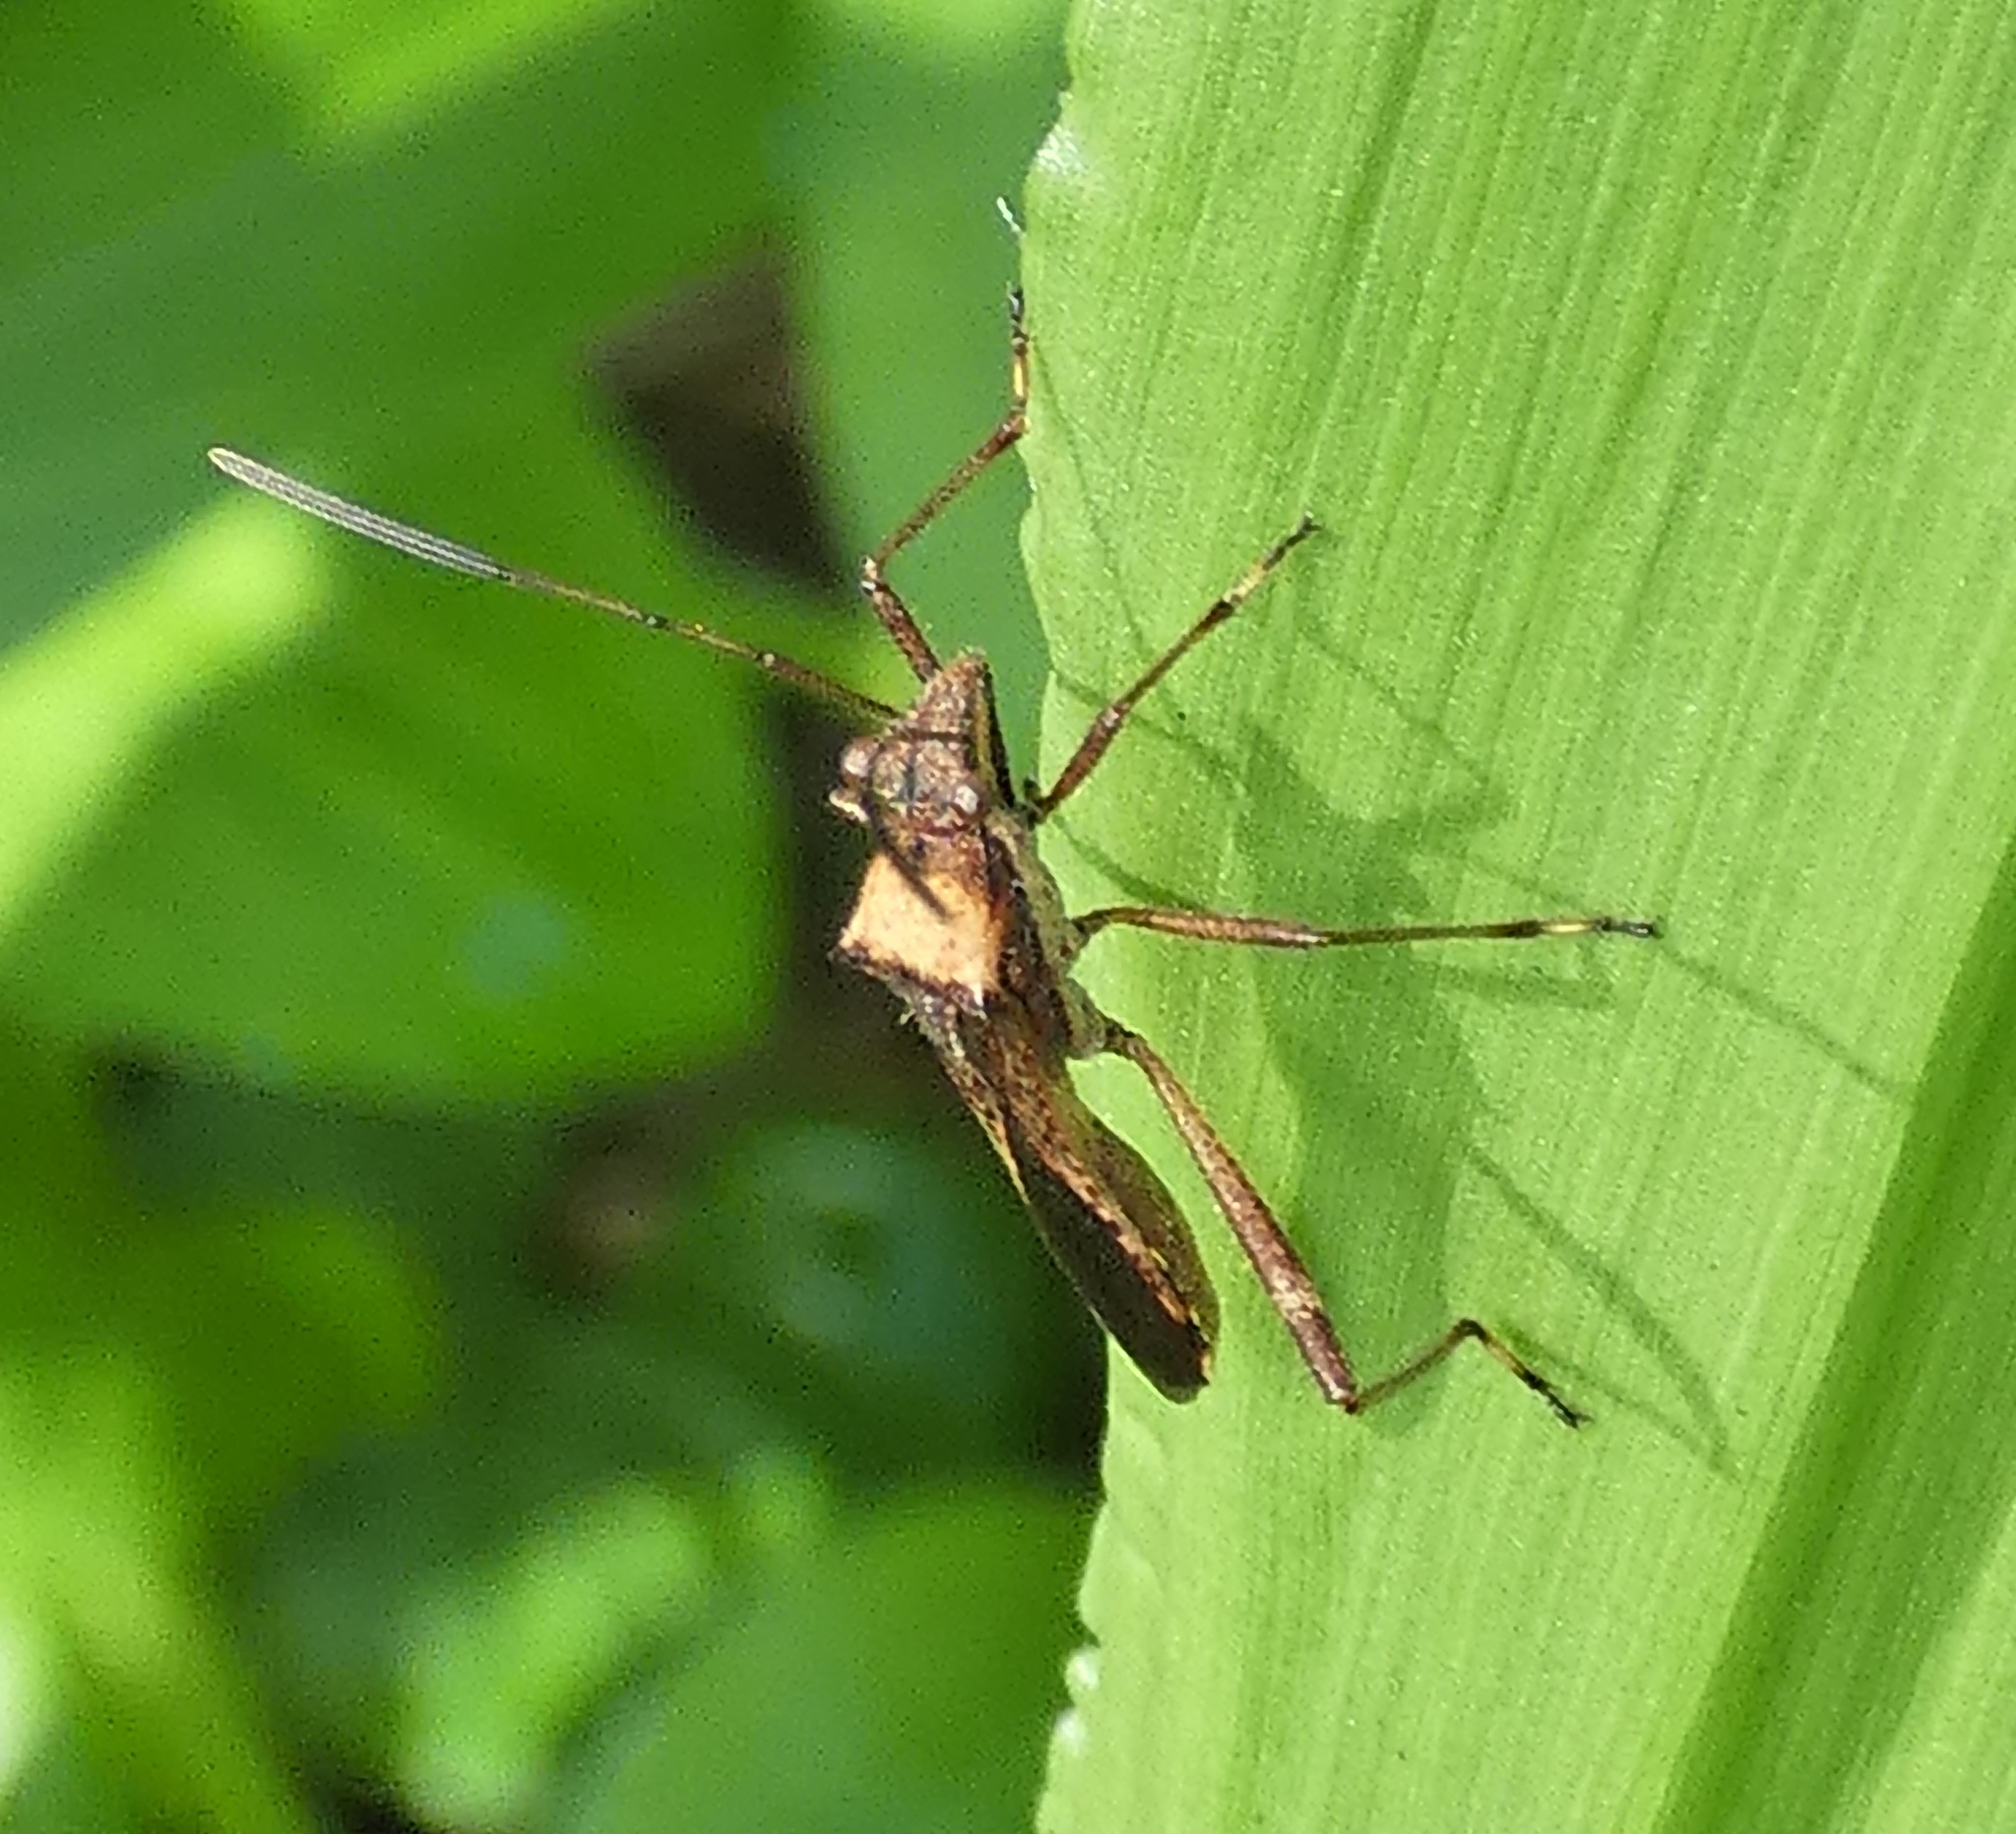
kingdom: Animalia
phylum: Arthropoda
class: Insecta
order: Hemiptera
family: Alydidae
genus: Neomegalotomus
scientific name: Neomegalotomus parvus
